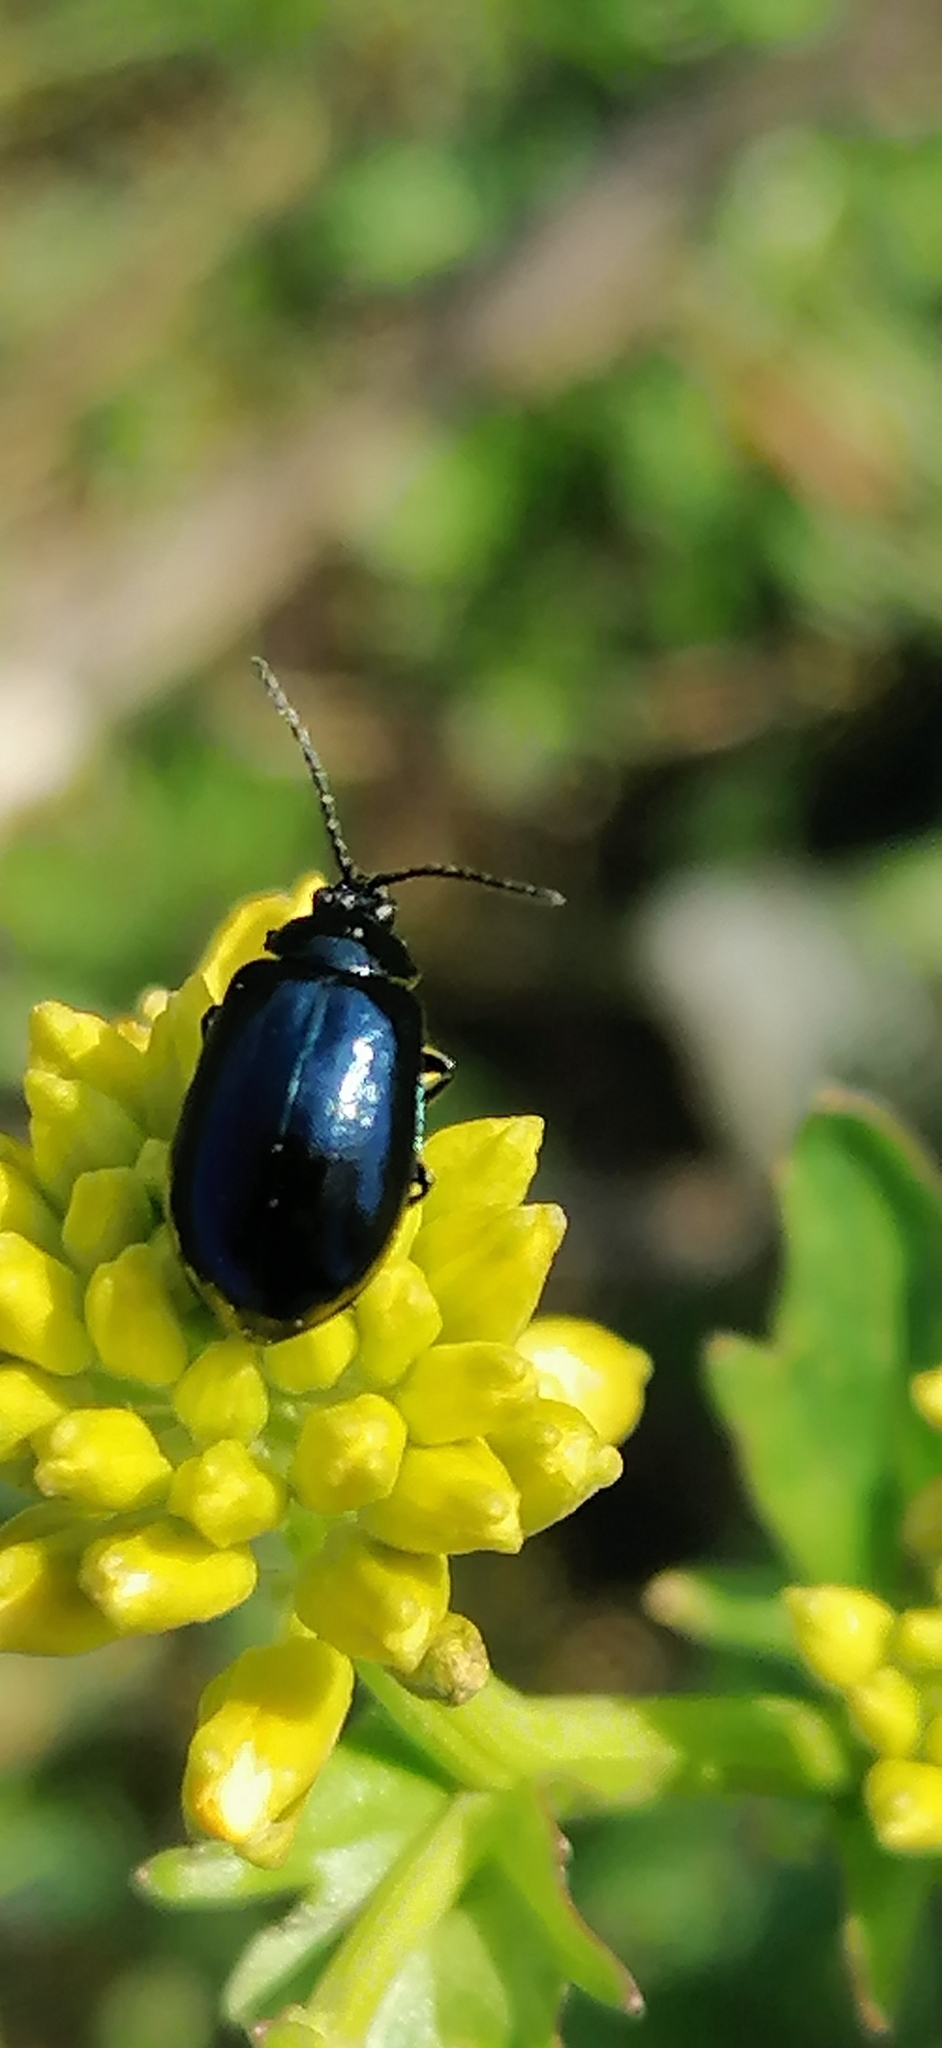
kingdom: Animalia
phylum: Arthropoda
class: Insecta
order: Coleoptera
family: Chrysomelidae
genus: Agelastica
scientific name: Agelastica alni
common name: Alder leaf beetle
